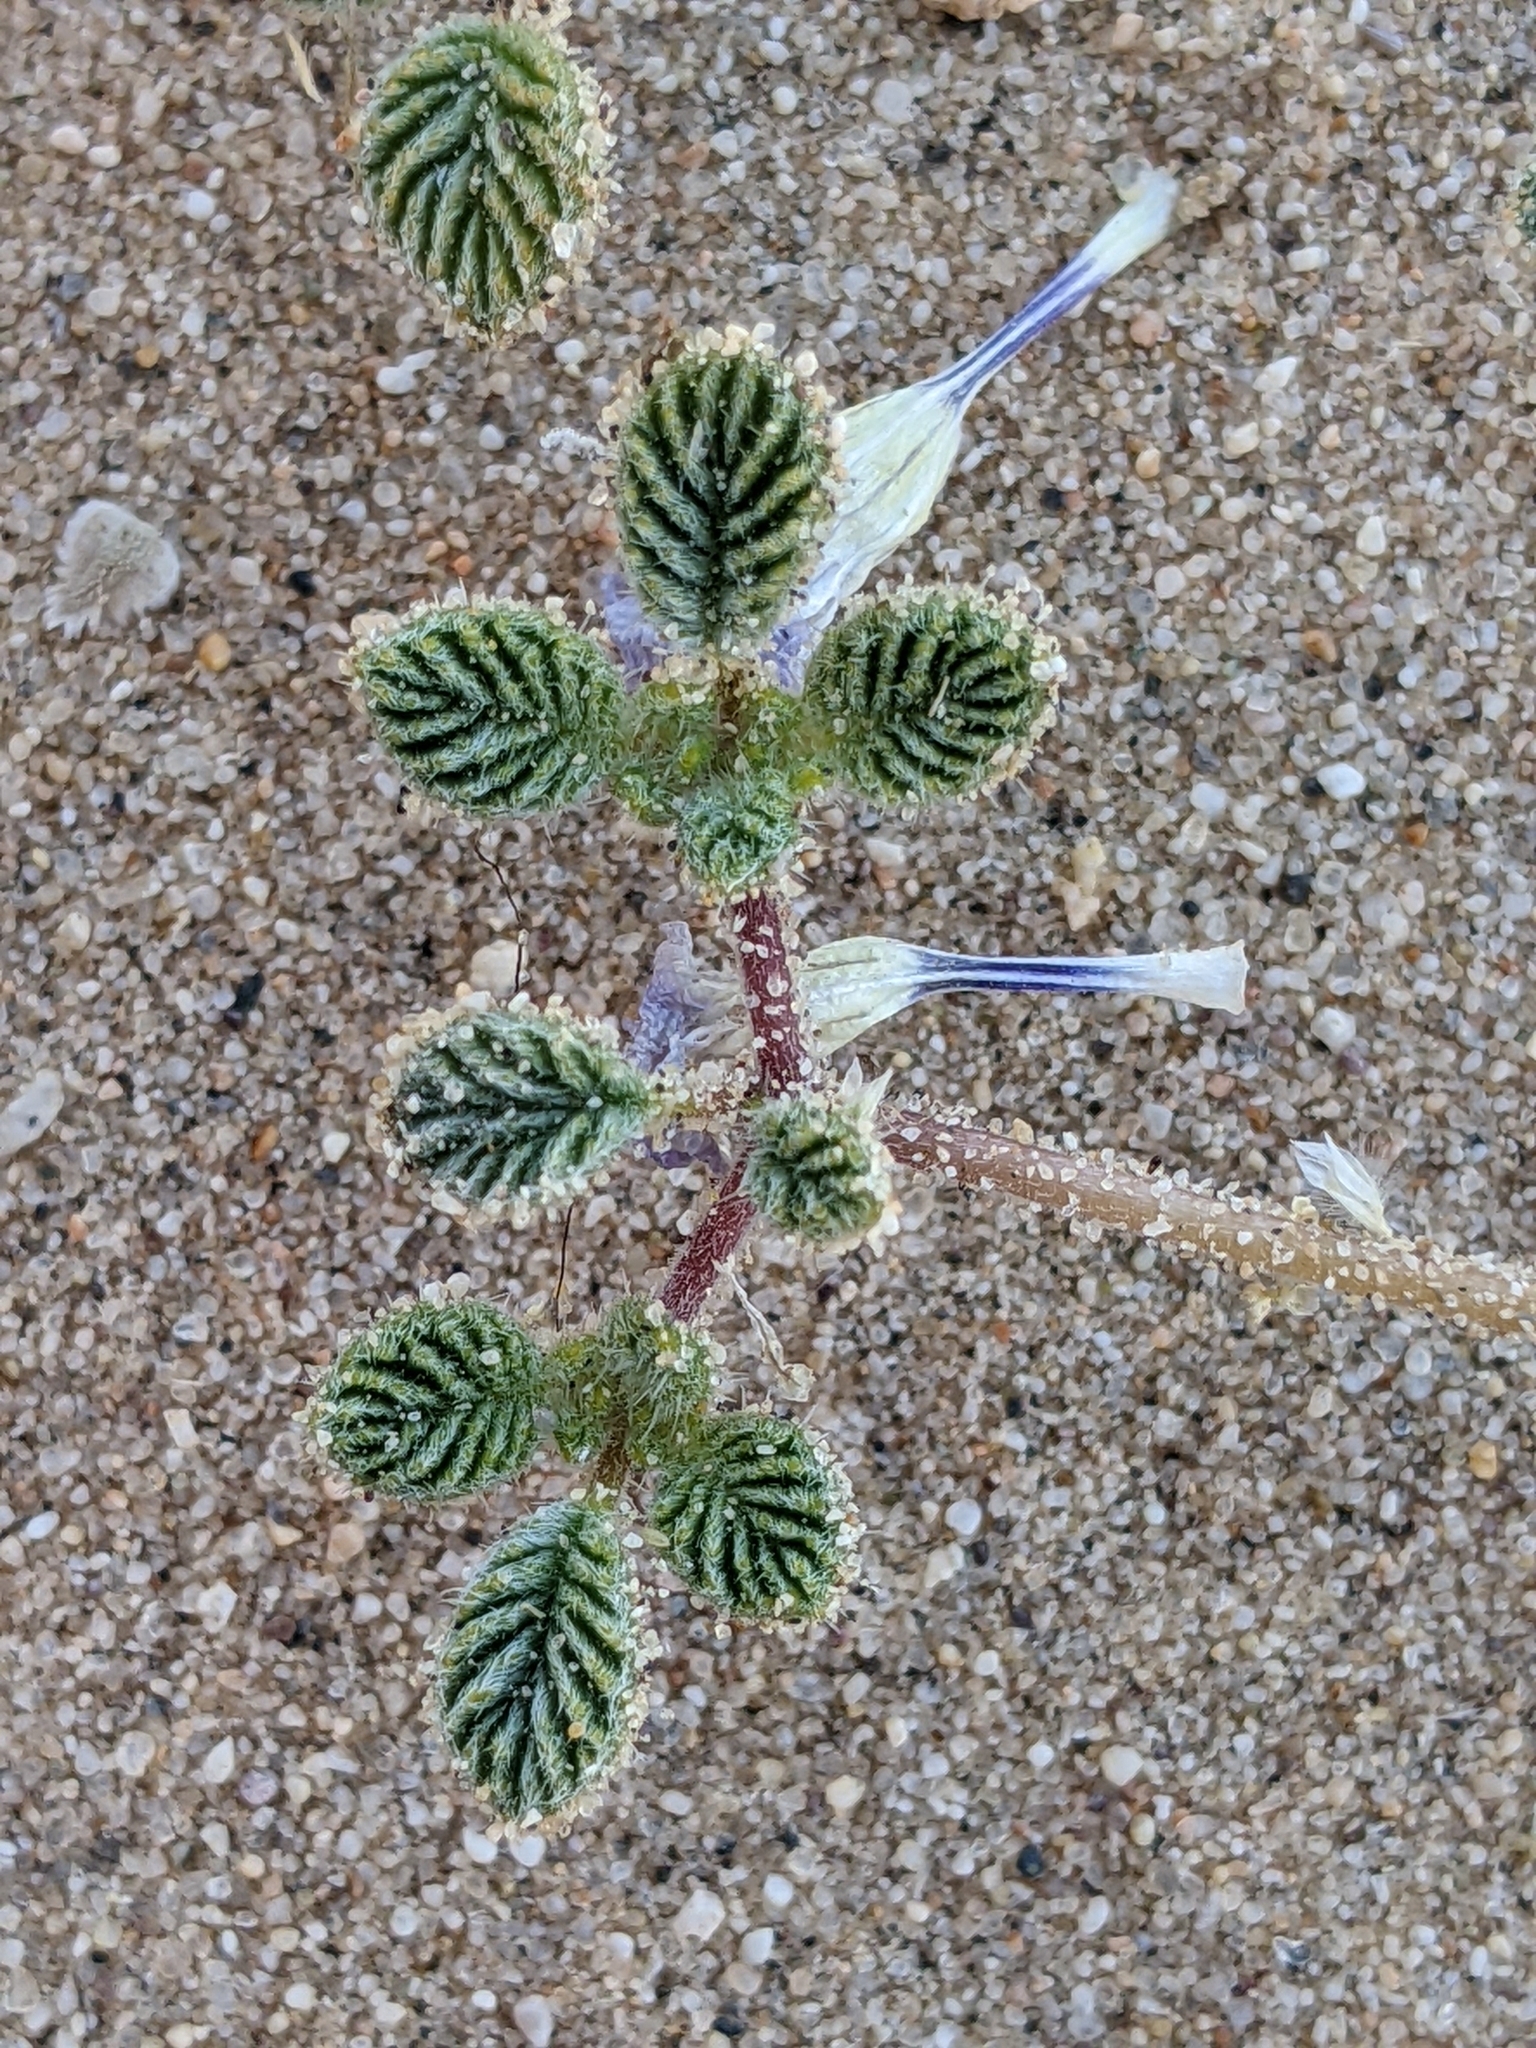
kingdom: Plantae
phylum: Tracheophyta
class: Magnoliopsida
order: Boraginales
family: Ehretiaceae
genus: Tiquilia
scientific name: Tiquilia plicata
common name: Fan-leaf tiquilia
